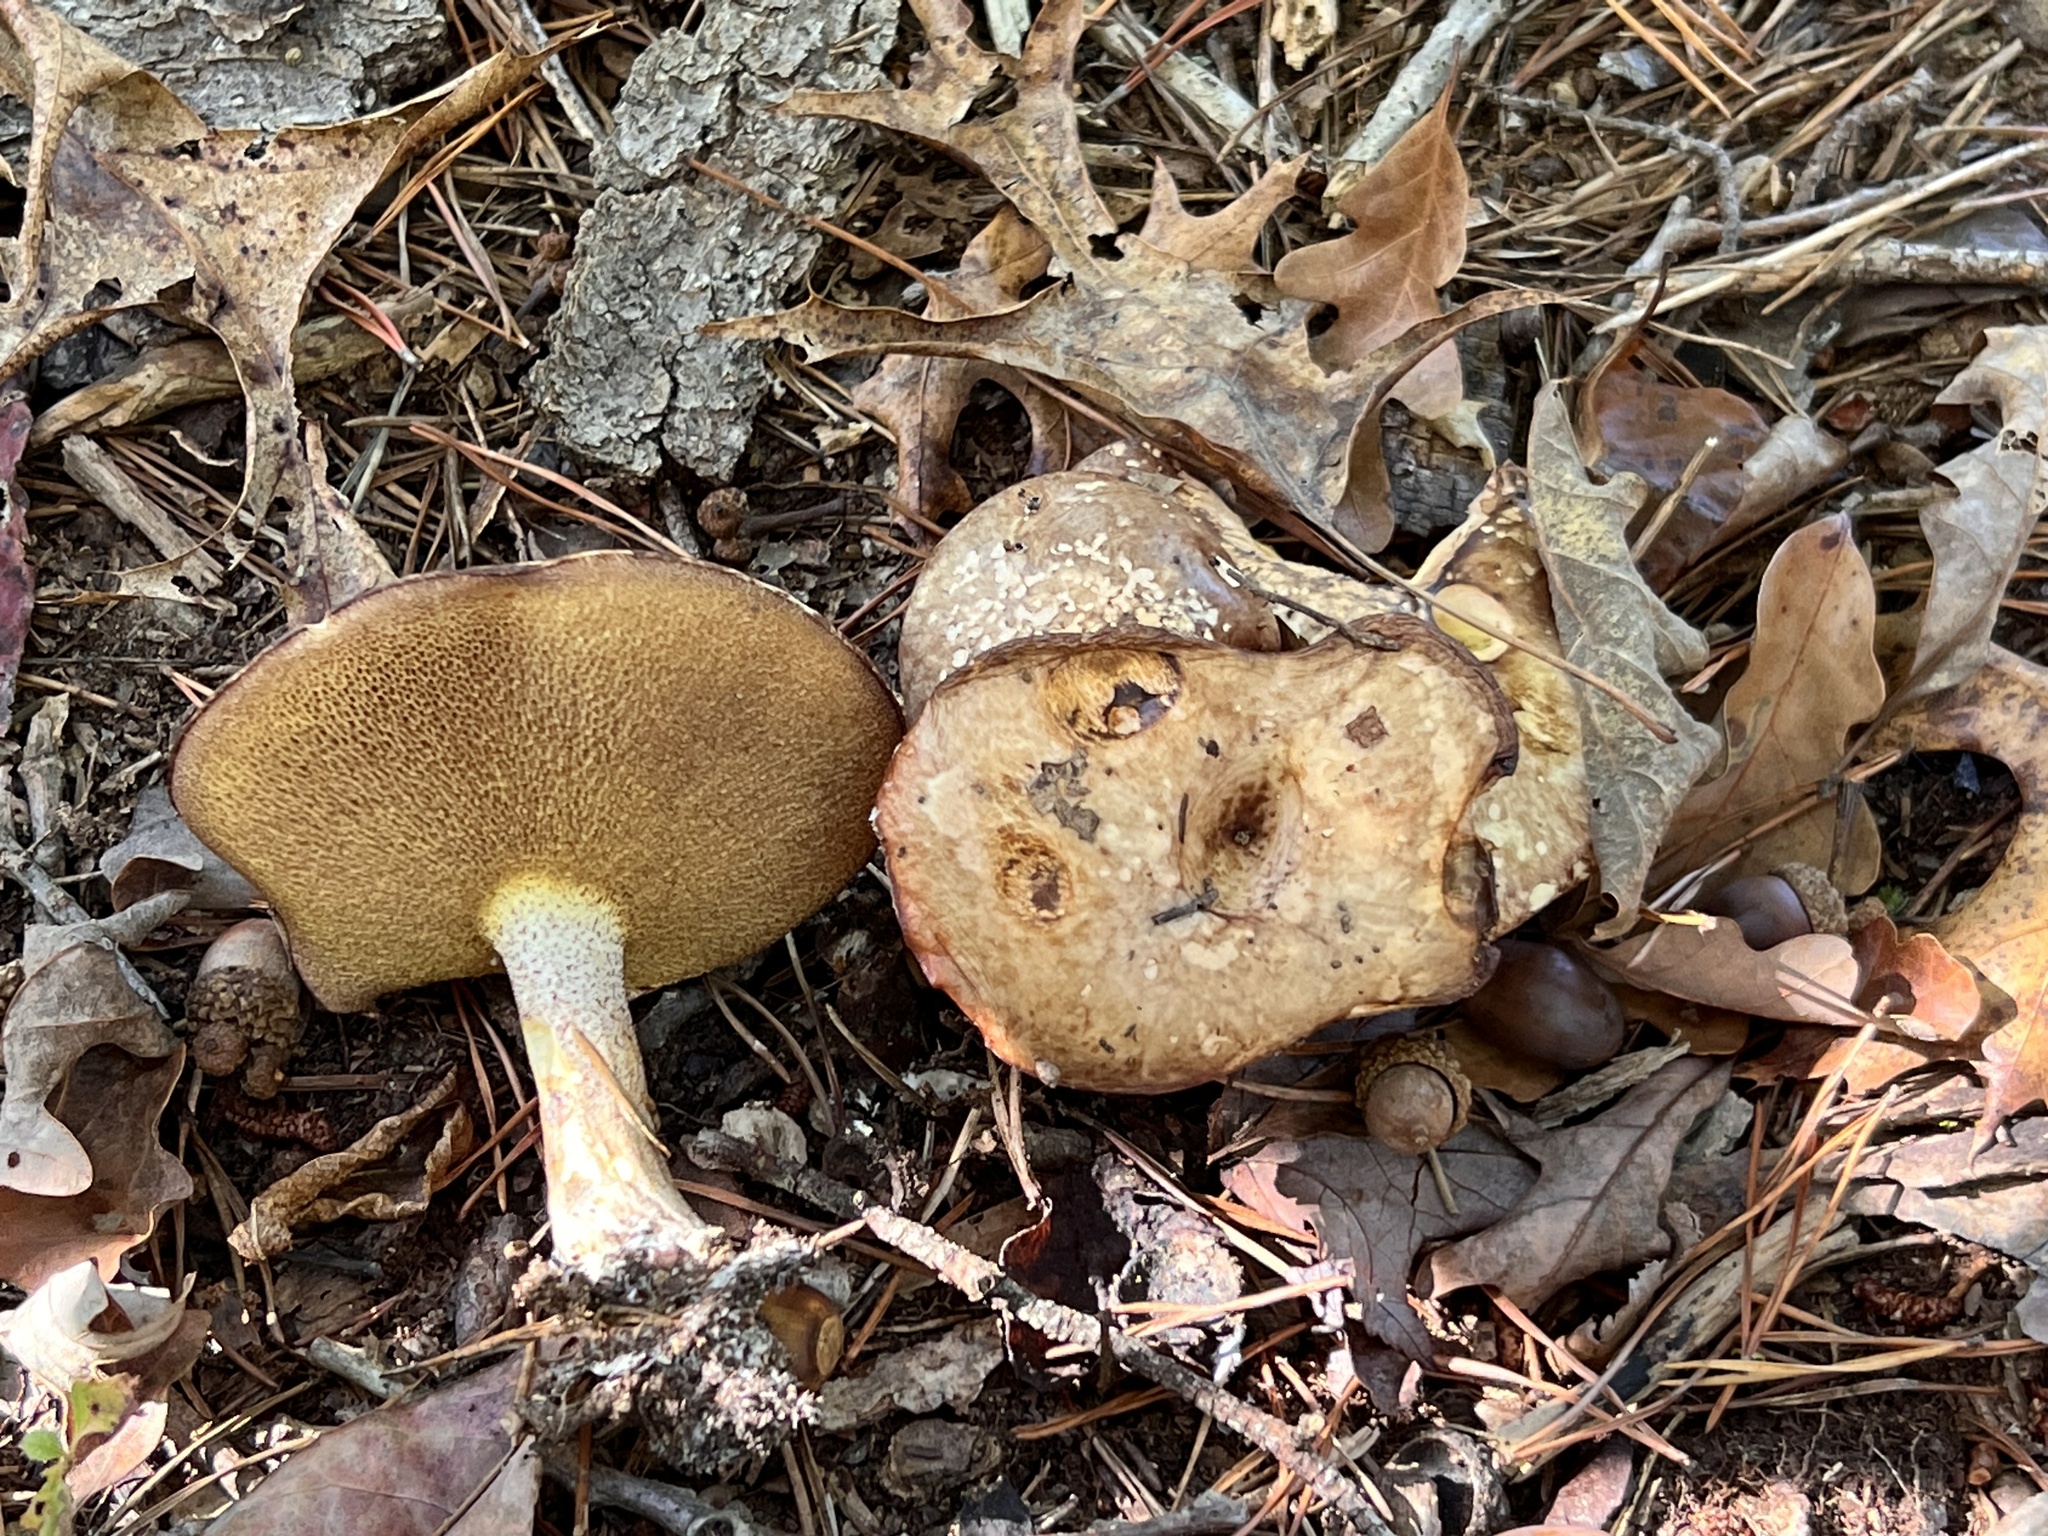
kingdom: Fungi
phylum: Basidiomycota
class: Agaricomycetes
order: Boletales
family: Suillaceae
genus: Fuscoboletinus
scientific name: Fuscoboletinus weaverae
